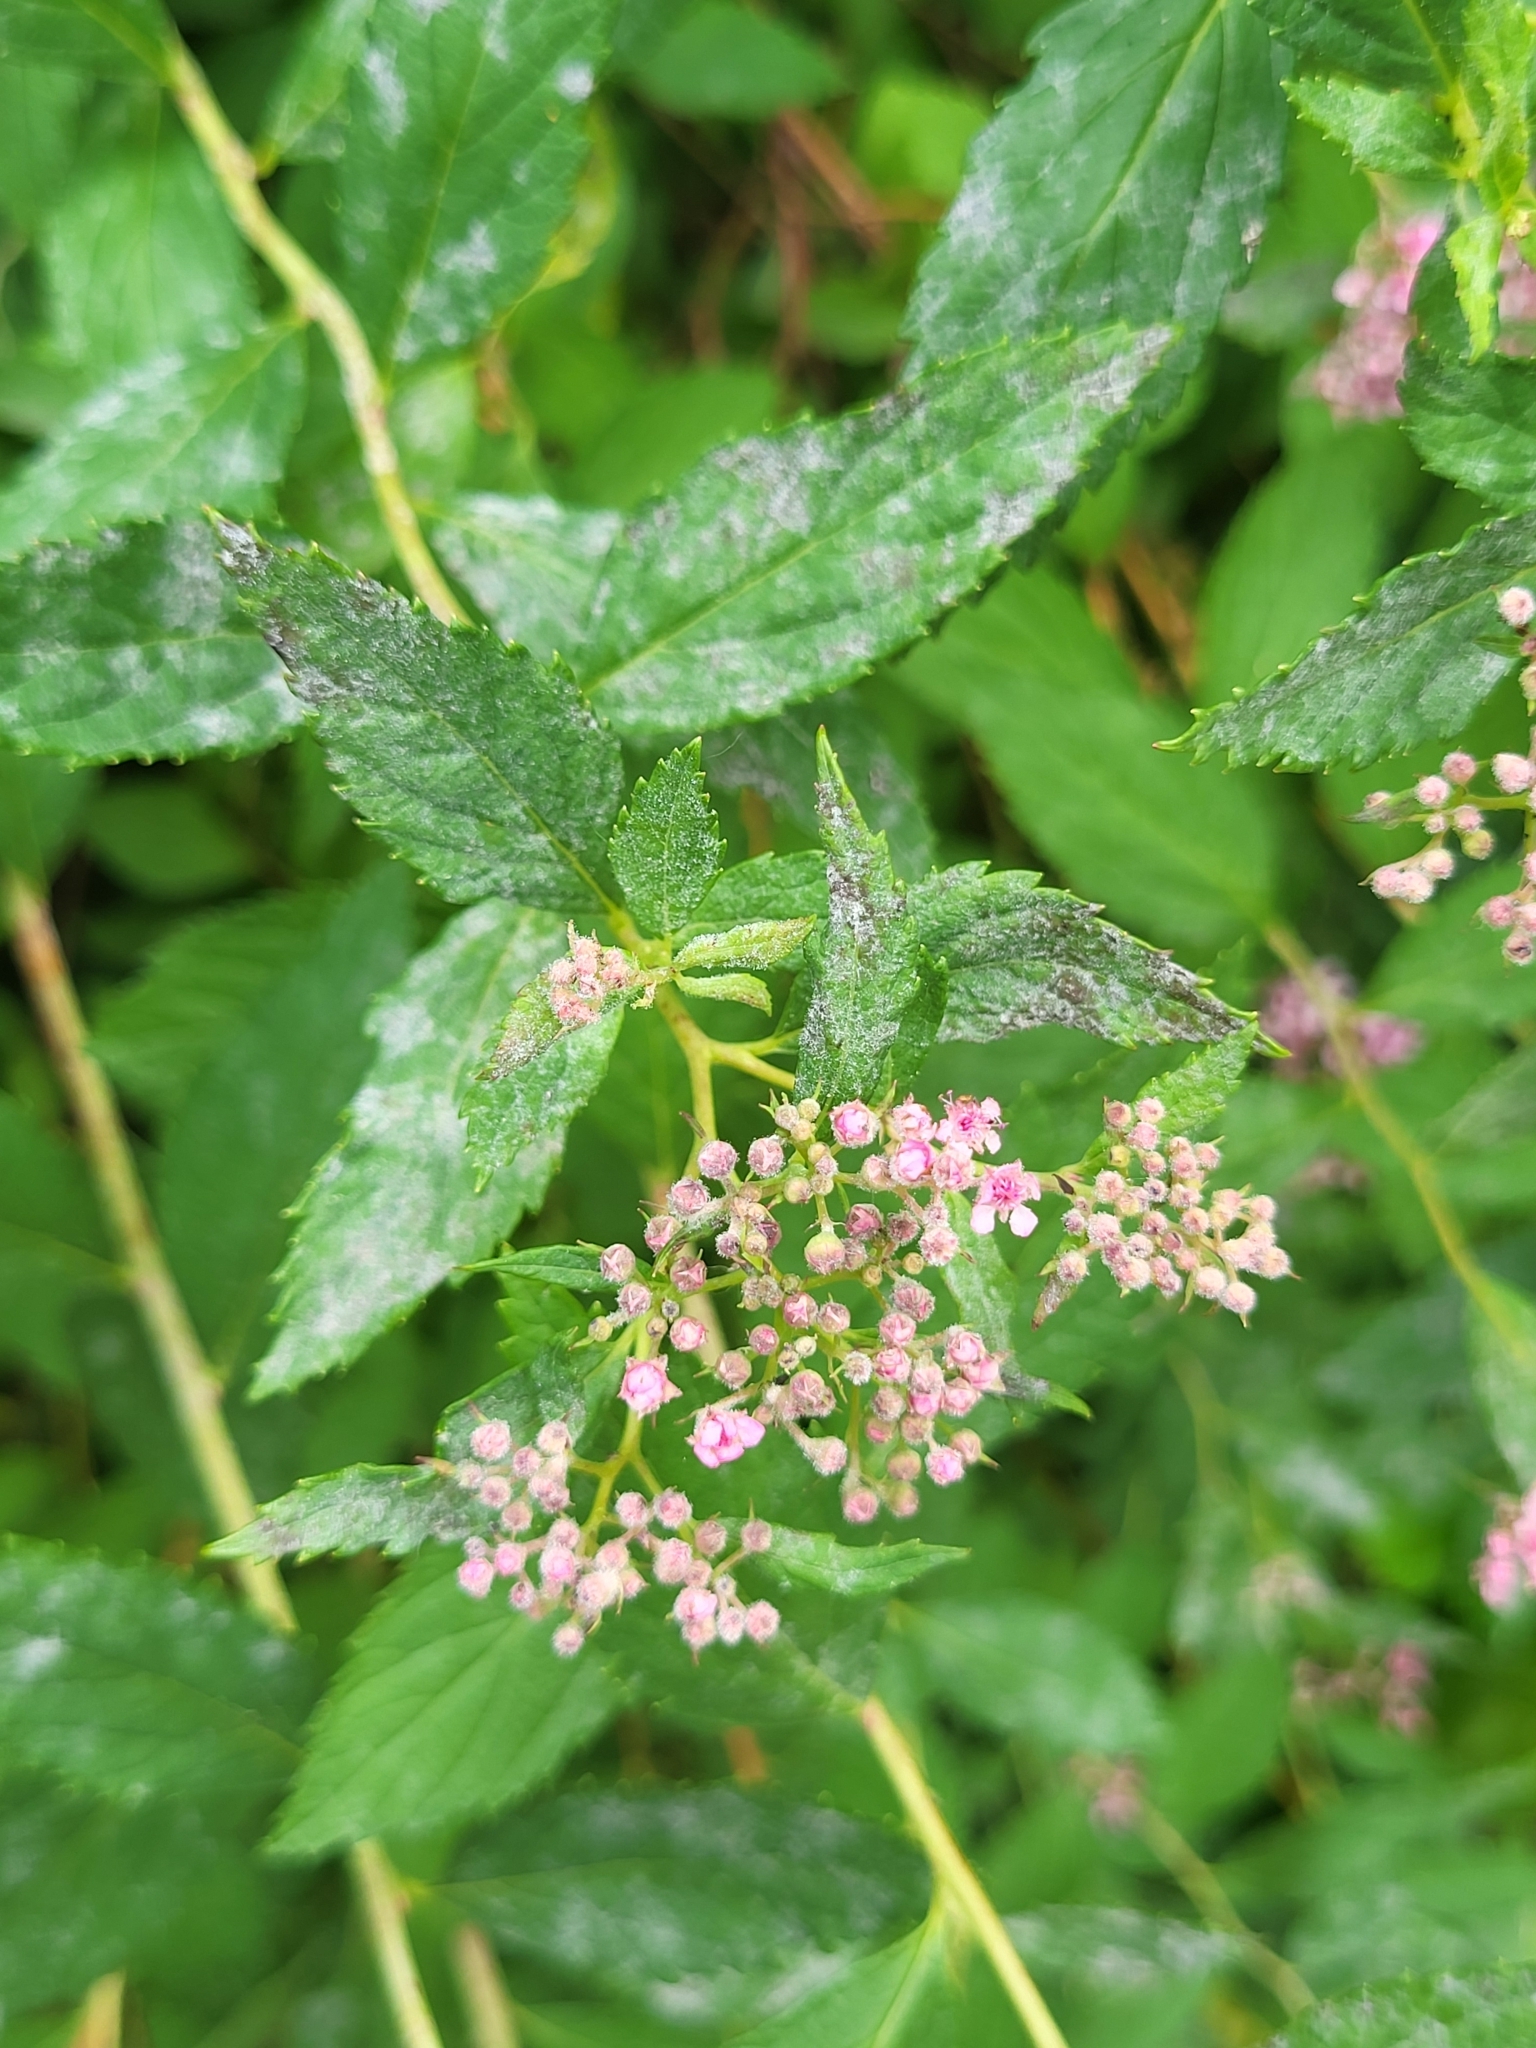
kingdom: Fungi
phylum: Ascomycota
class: Leotiomycetes
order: Helotiales
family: Erysiphaceae
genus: Podosphaera
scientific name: Podosphaera minor
